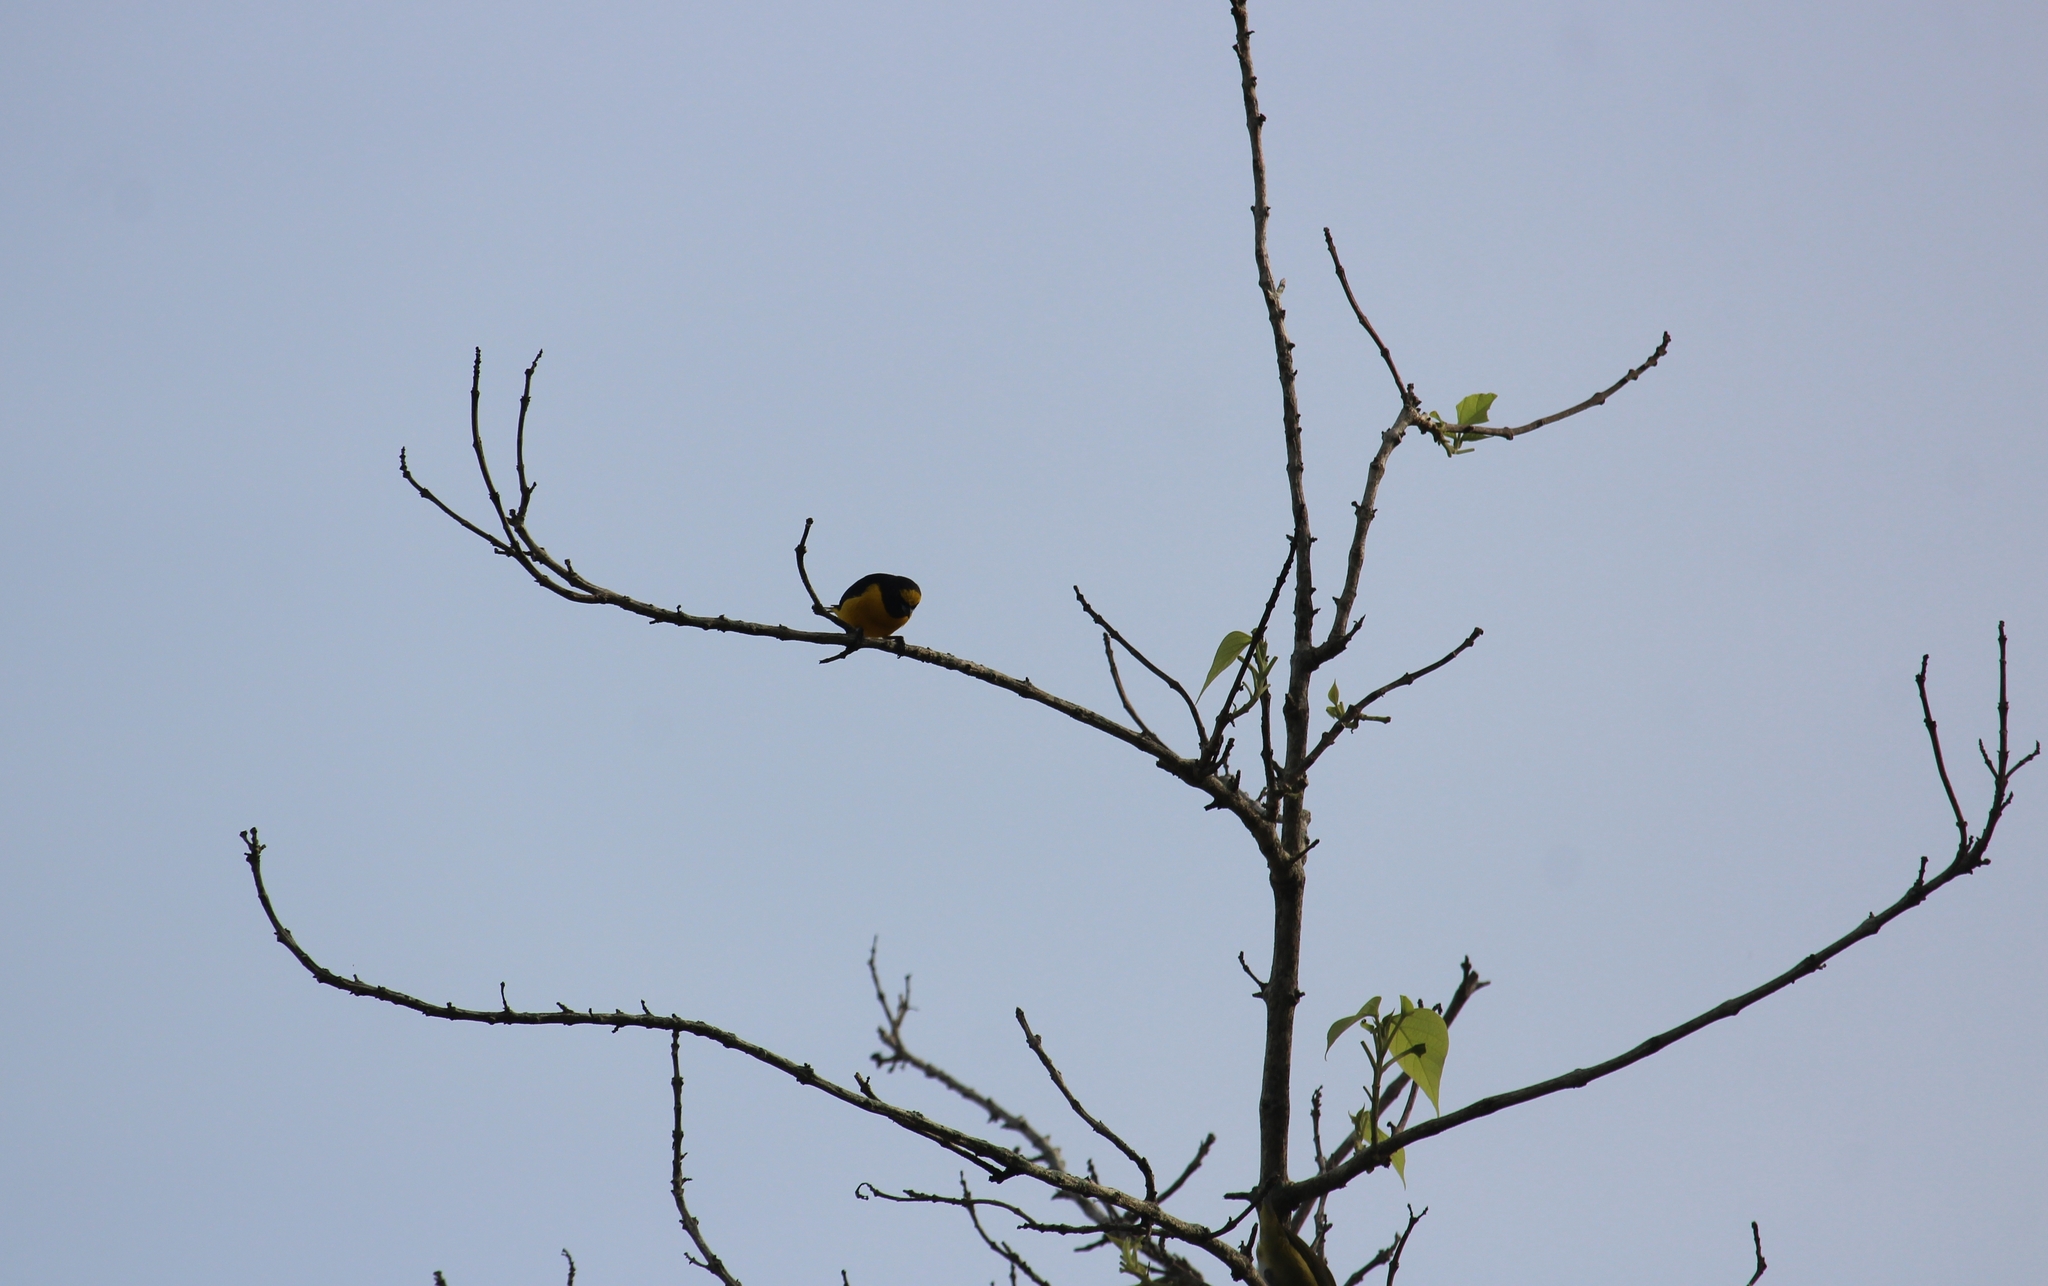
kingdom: Animalia
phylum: Chordata
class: Aves
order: Passeriformes
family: Fringillidae
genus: Euphonia
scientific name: Euphonia affinis
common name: Scrub euphonia
